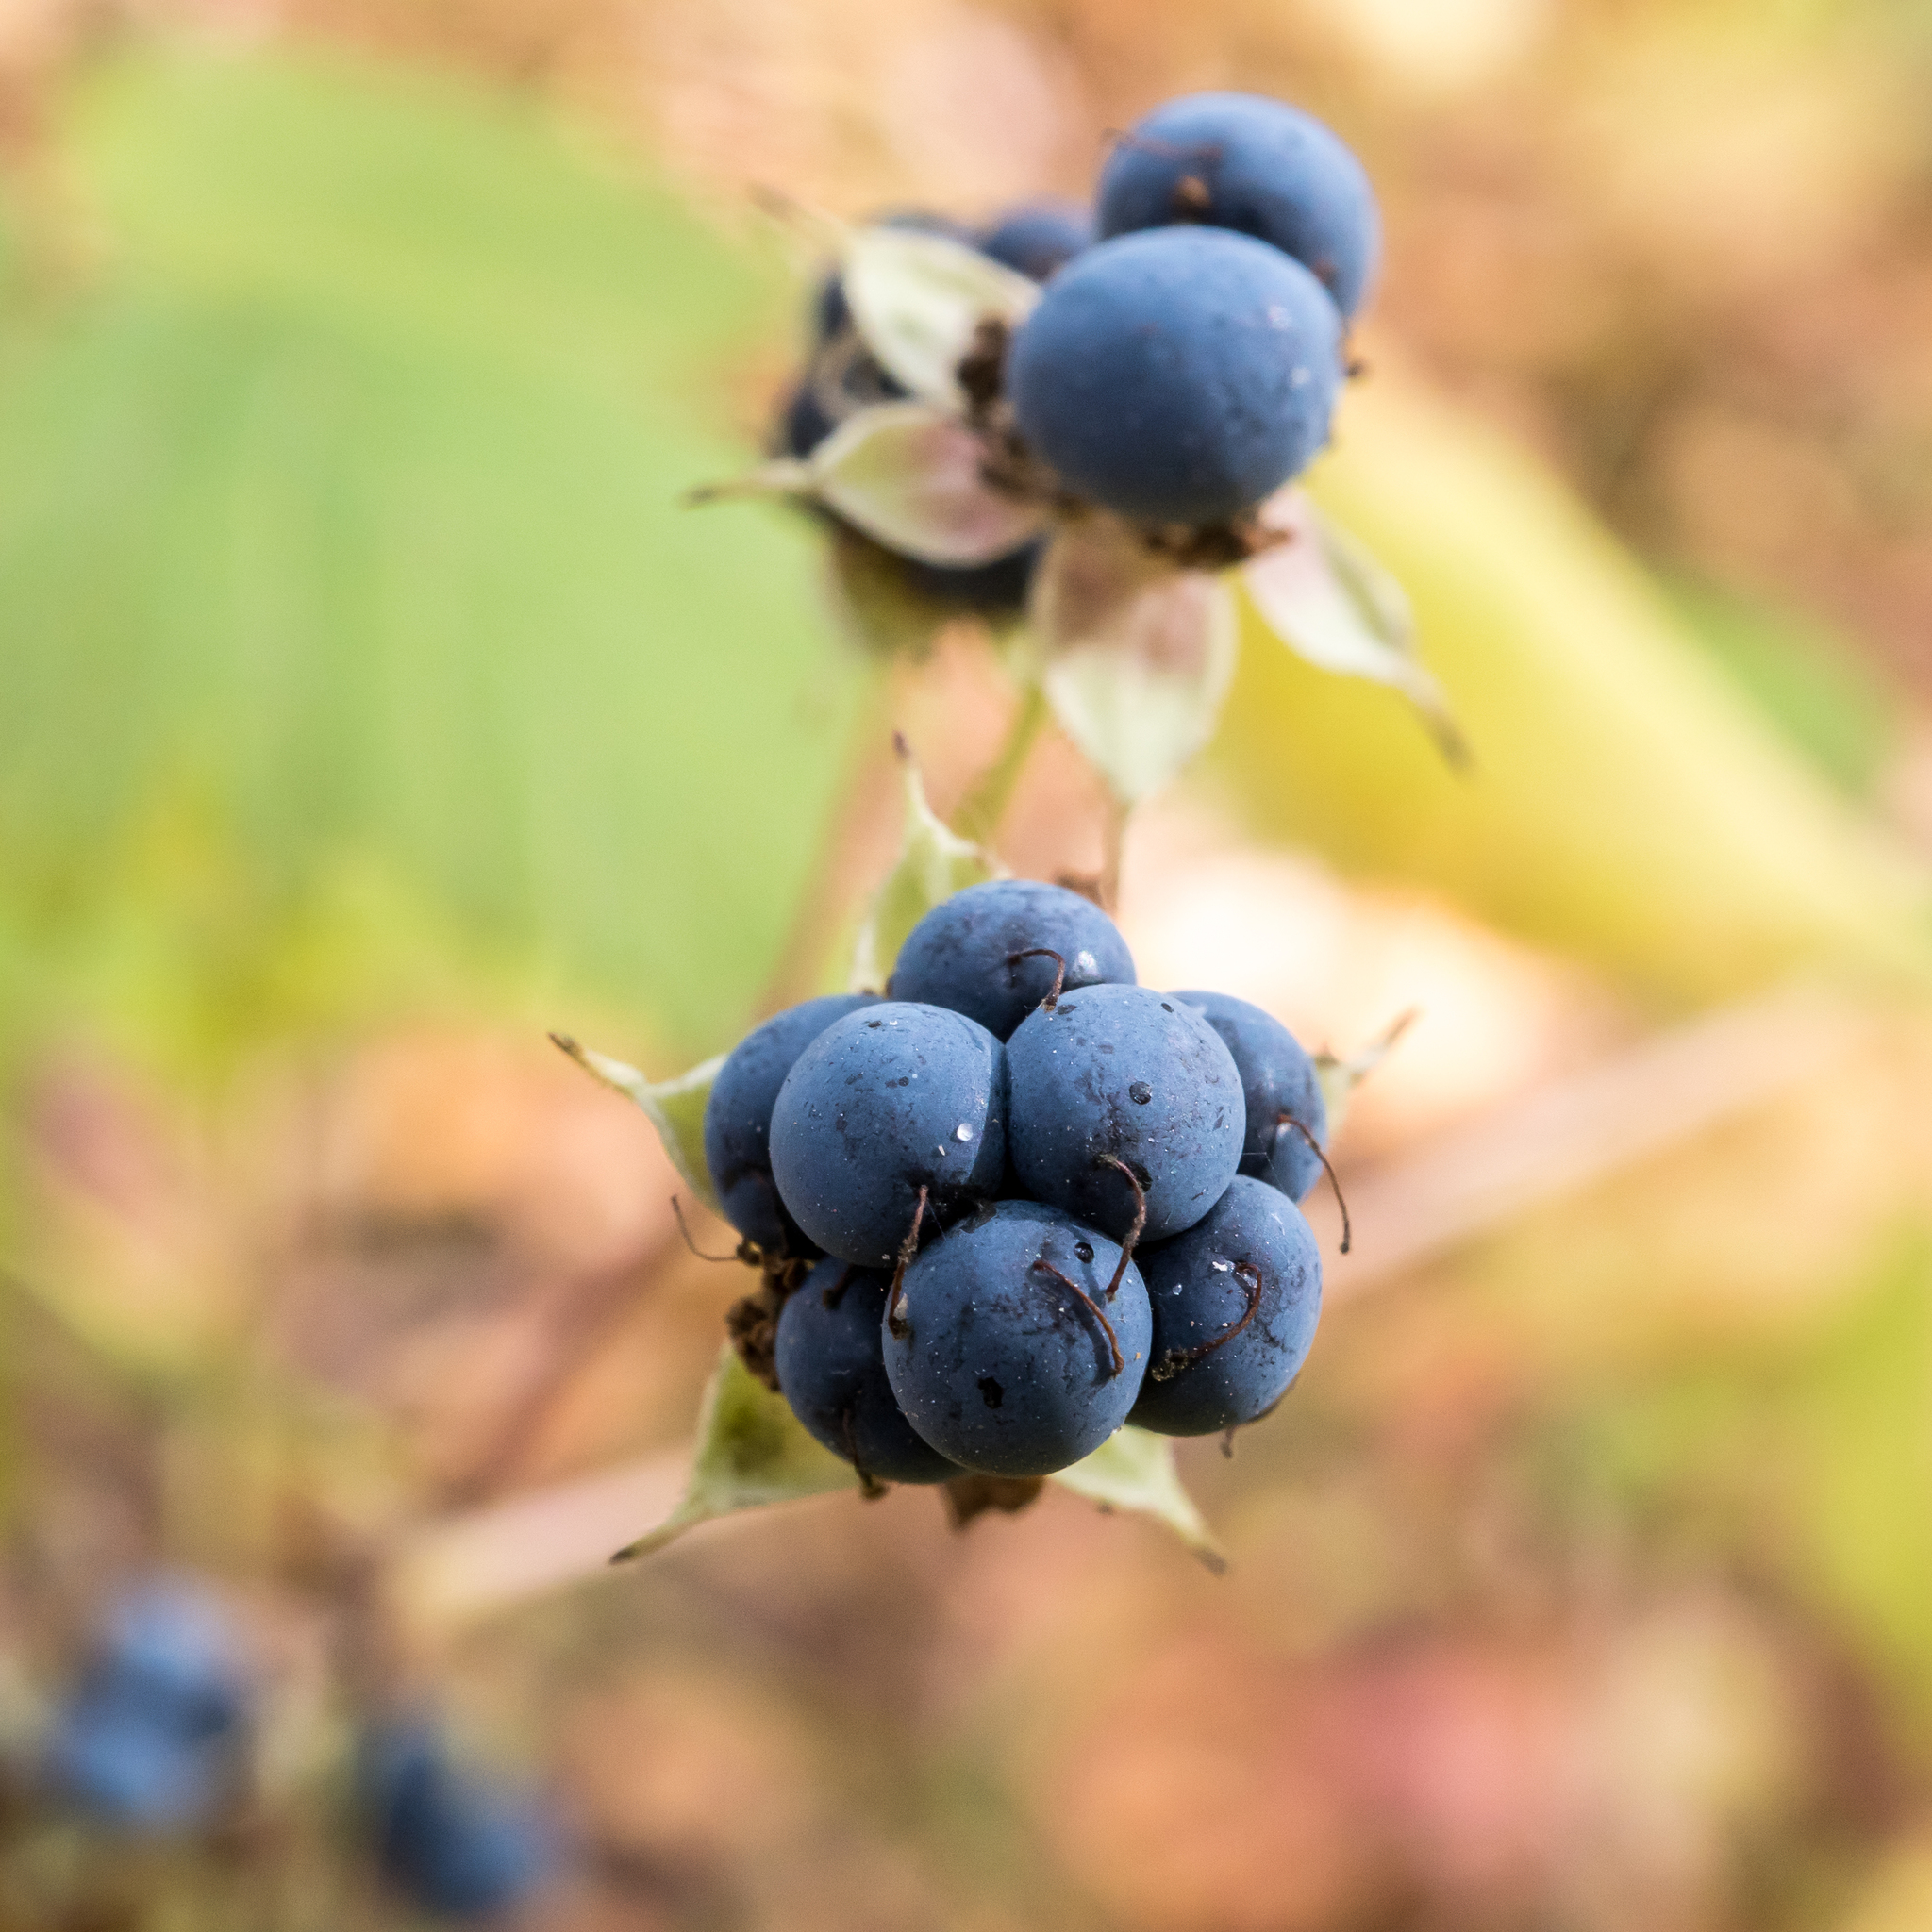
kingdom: Plantae
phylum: Tracheophyta
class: Magnoliopsida
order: Rosales
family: Rosaceae
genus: Rubus
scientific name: Rubus caesius
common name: Dewberry
